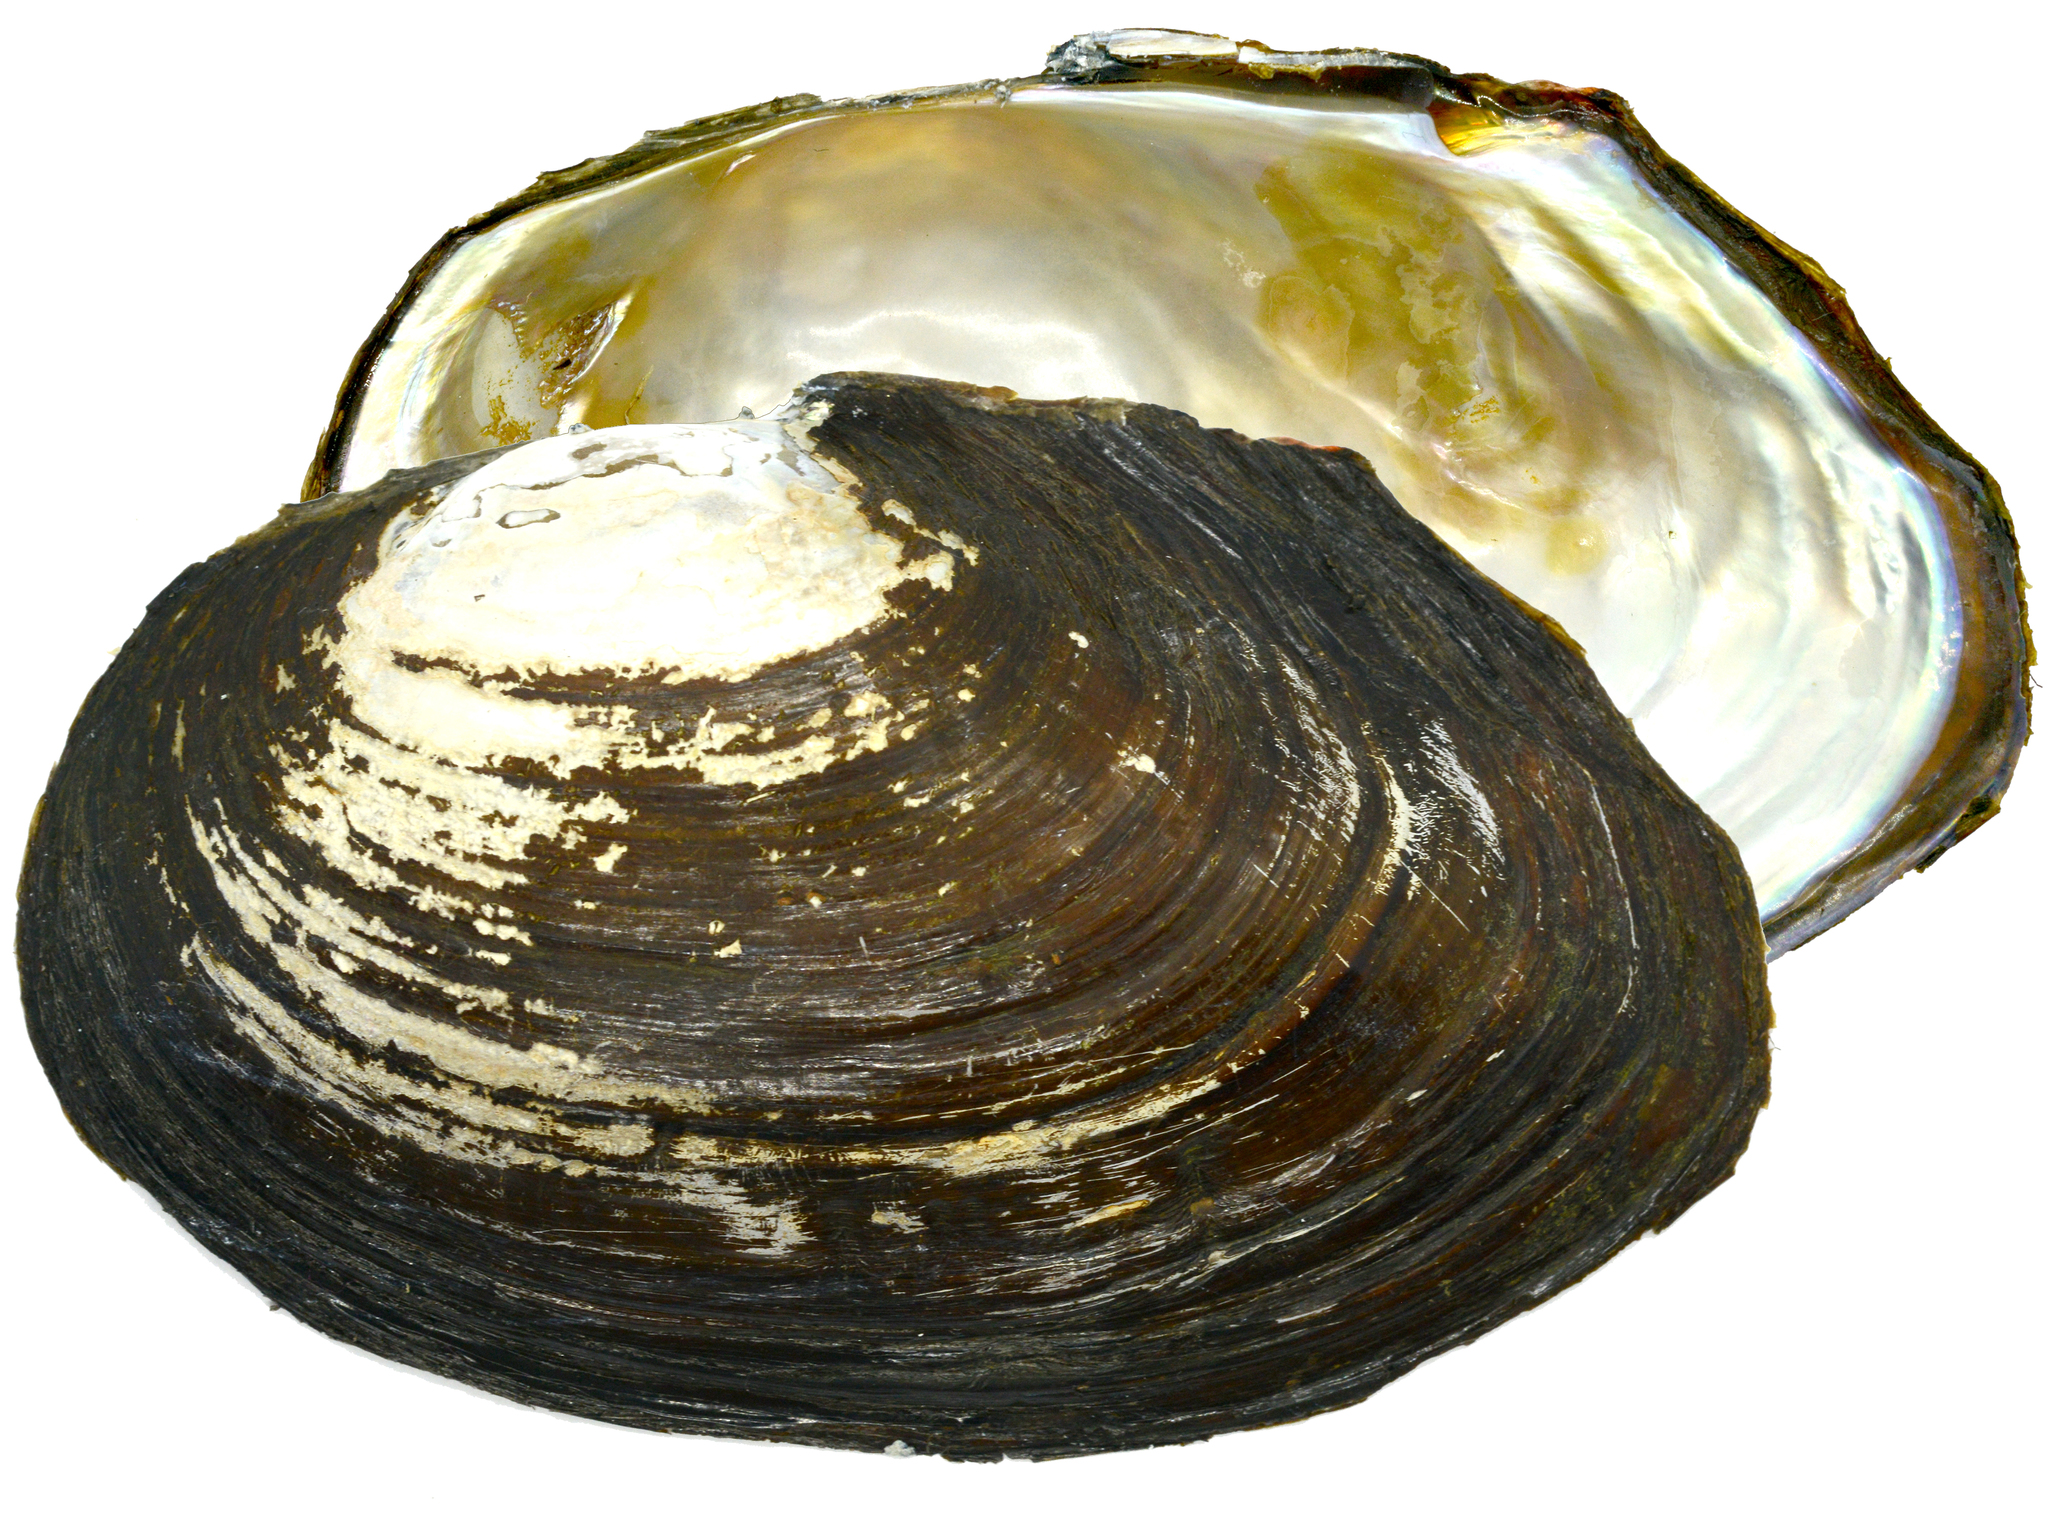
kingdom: Animalia
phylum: Mollusca
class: Bivalvia
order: Unionida
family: Unionidae
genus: Sinanodonta
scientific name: Sinanodonta lauta
